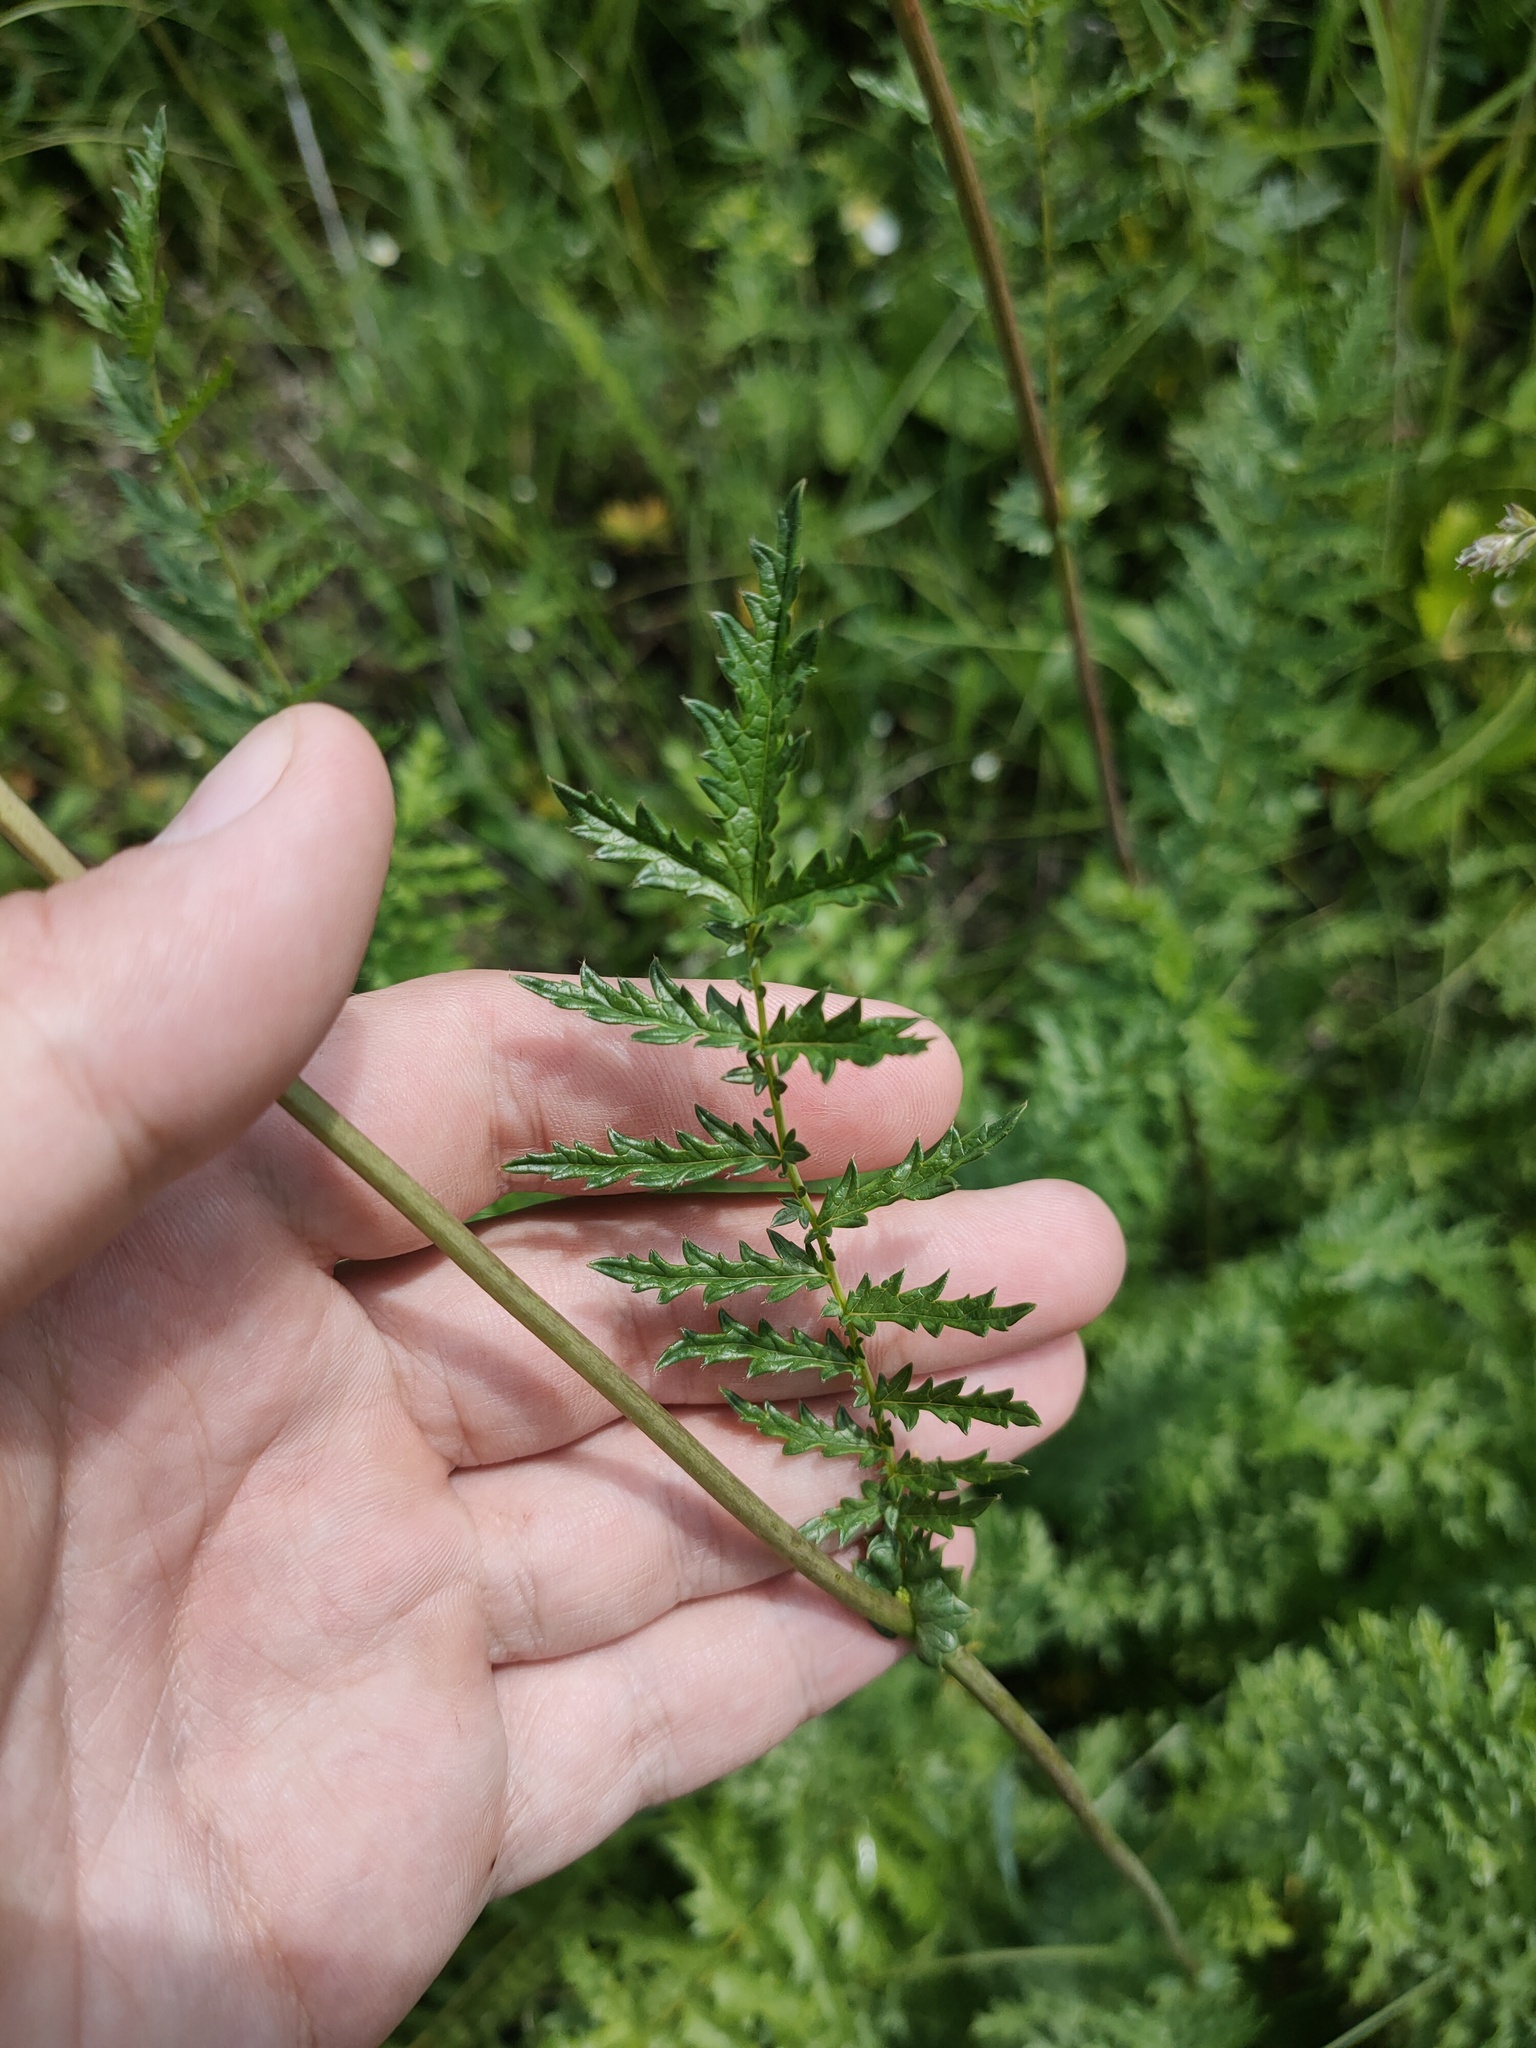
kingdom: Plantae
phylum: Tracheophyta
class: Magnoliopsida
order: Rosales
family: Rosaceae
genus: Filipendula
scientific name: Filipendula vulgaris
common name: Dropwort
